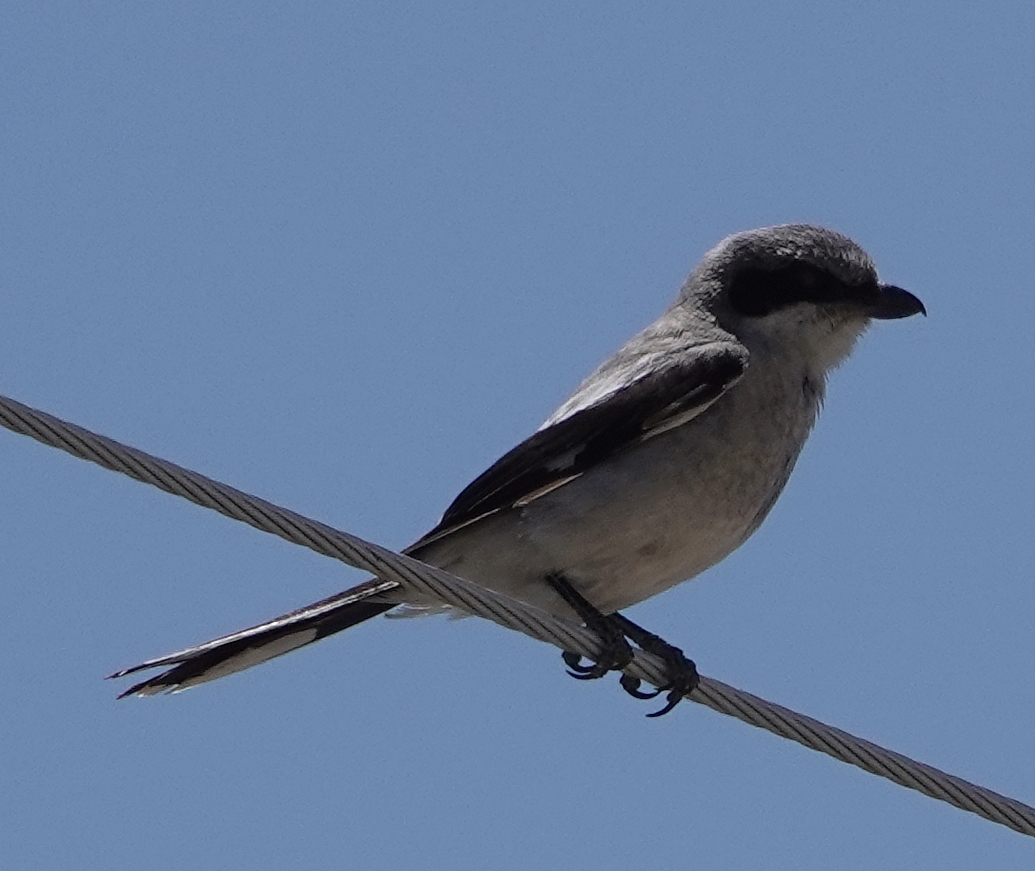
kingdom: Animalia
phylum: Chordata
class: Aves
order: Passeriformes
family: Laniidae
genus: Lanius
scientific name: Lanius ludovicianus
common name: Loggerhead shrike
